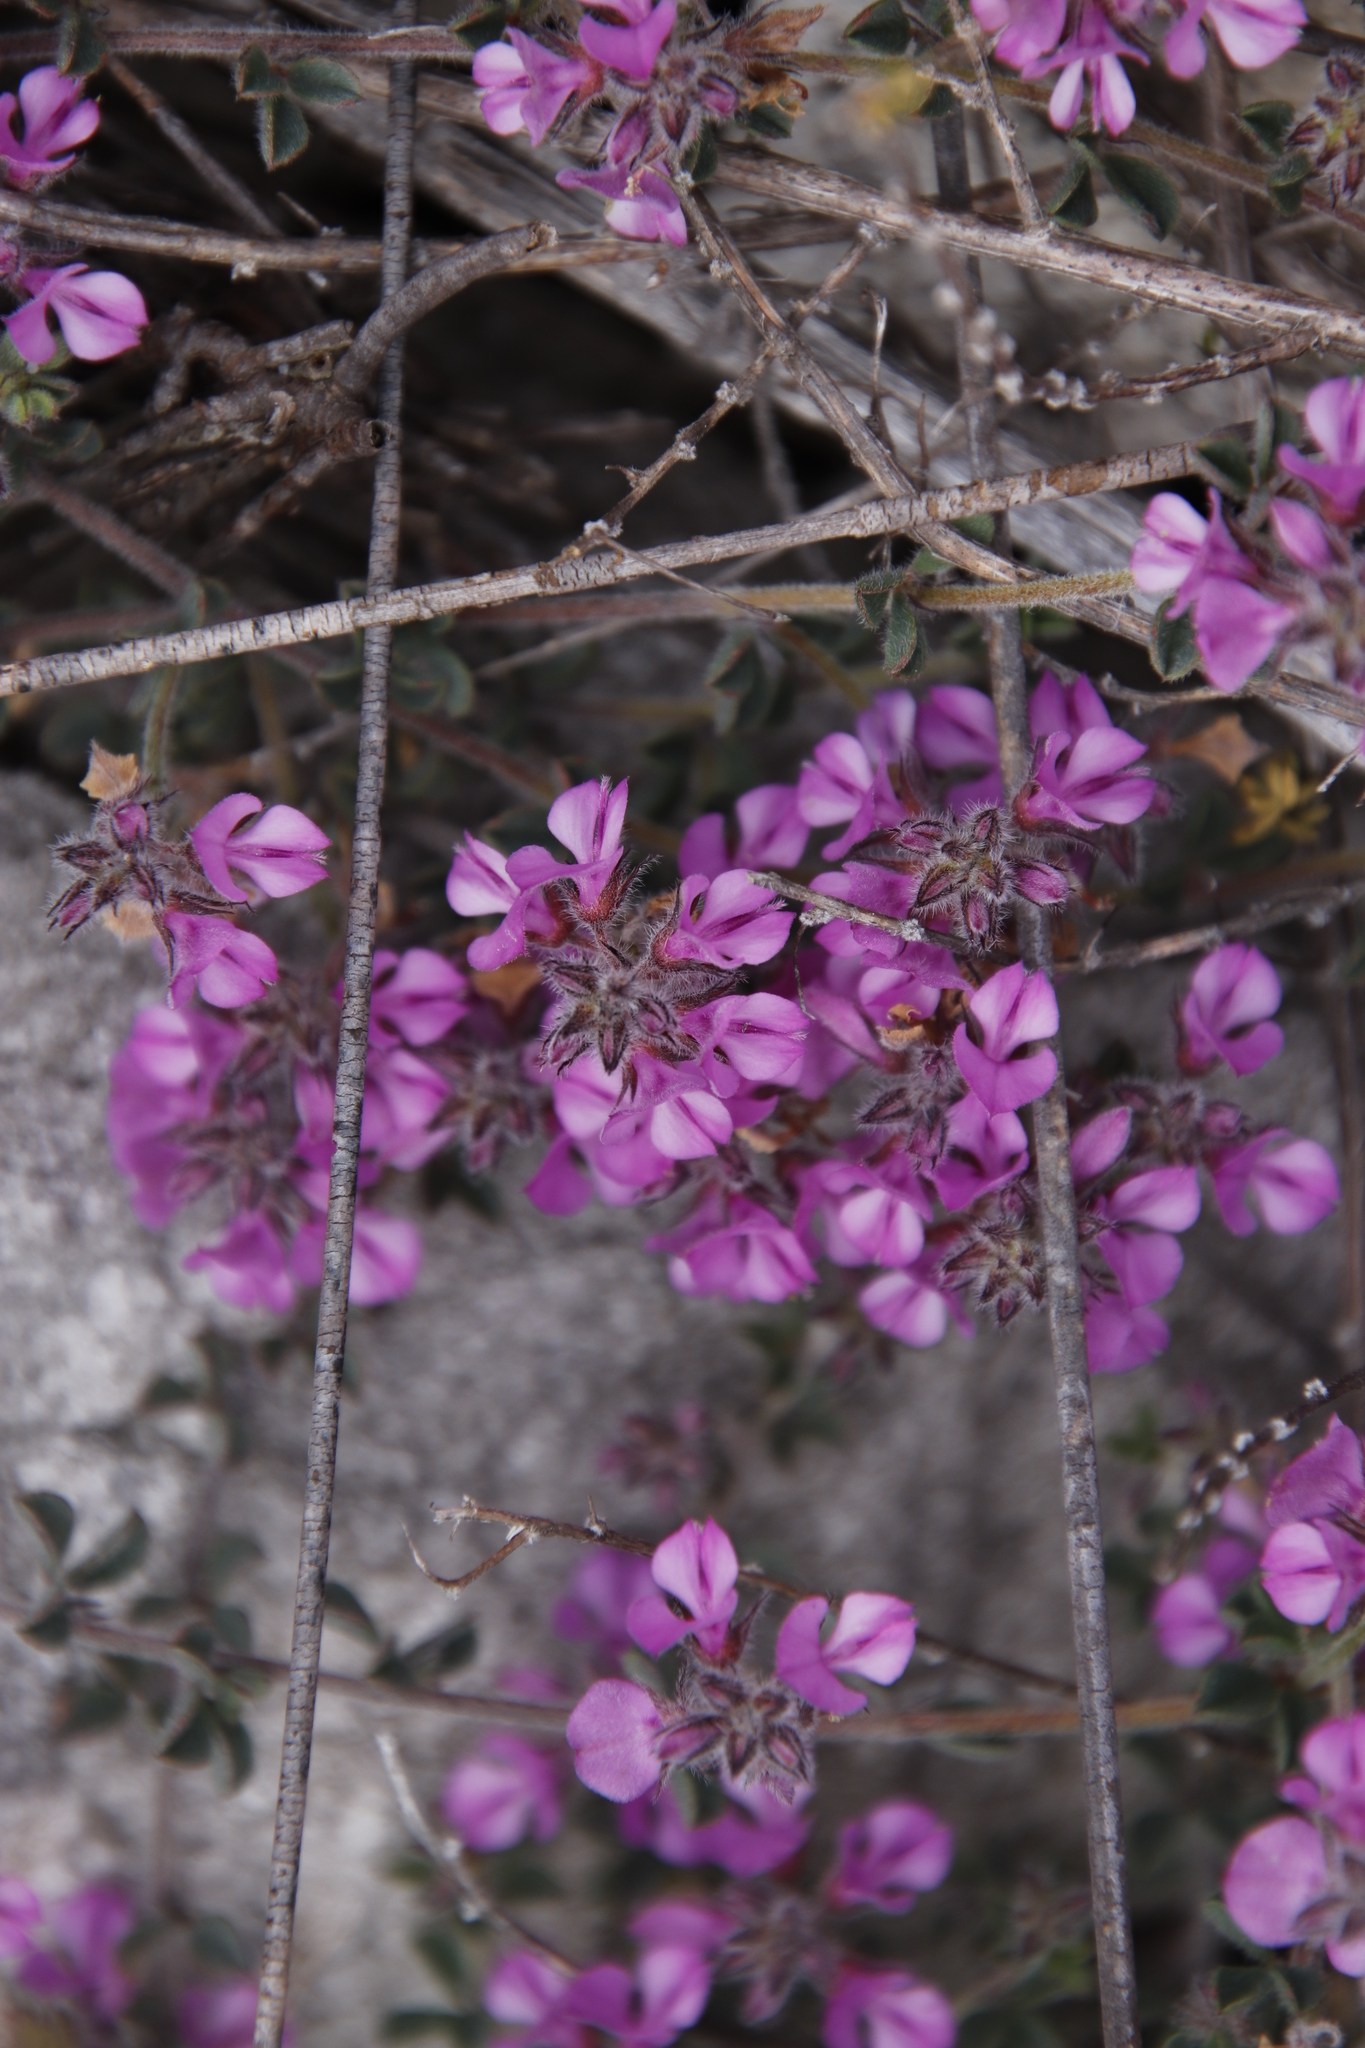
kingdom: Plantae
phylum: Tracheophyta
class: Magnoliopsida
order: Fabales
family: Fabaceae
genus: Indigofera
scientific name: Indigofera
